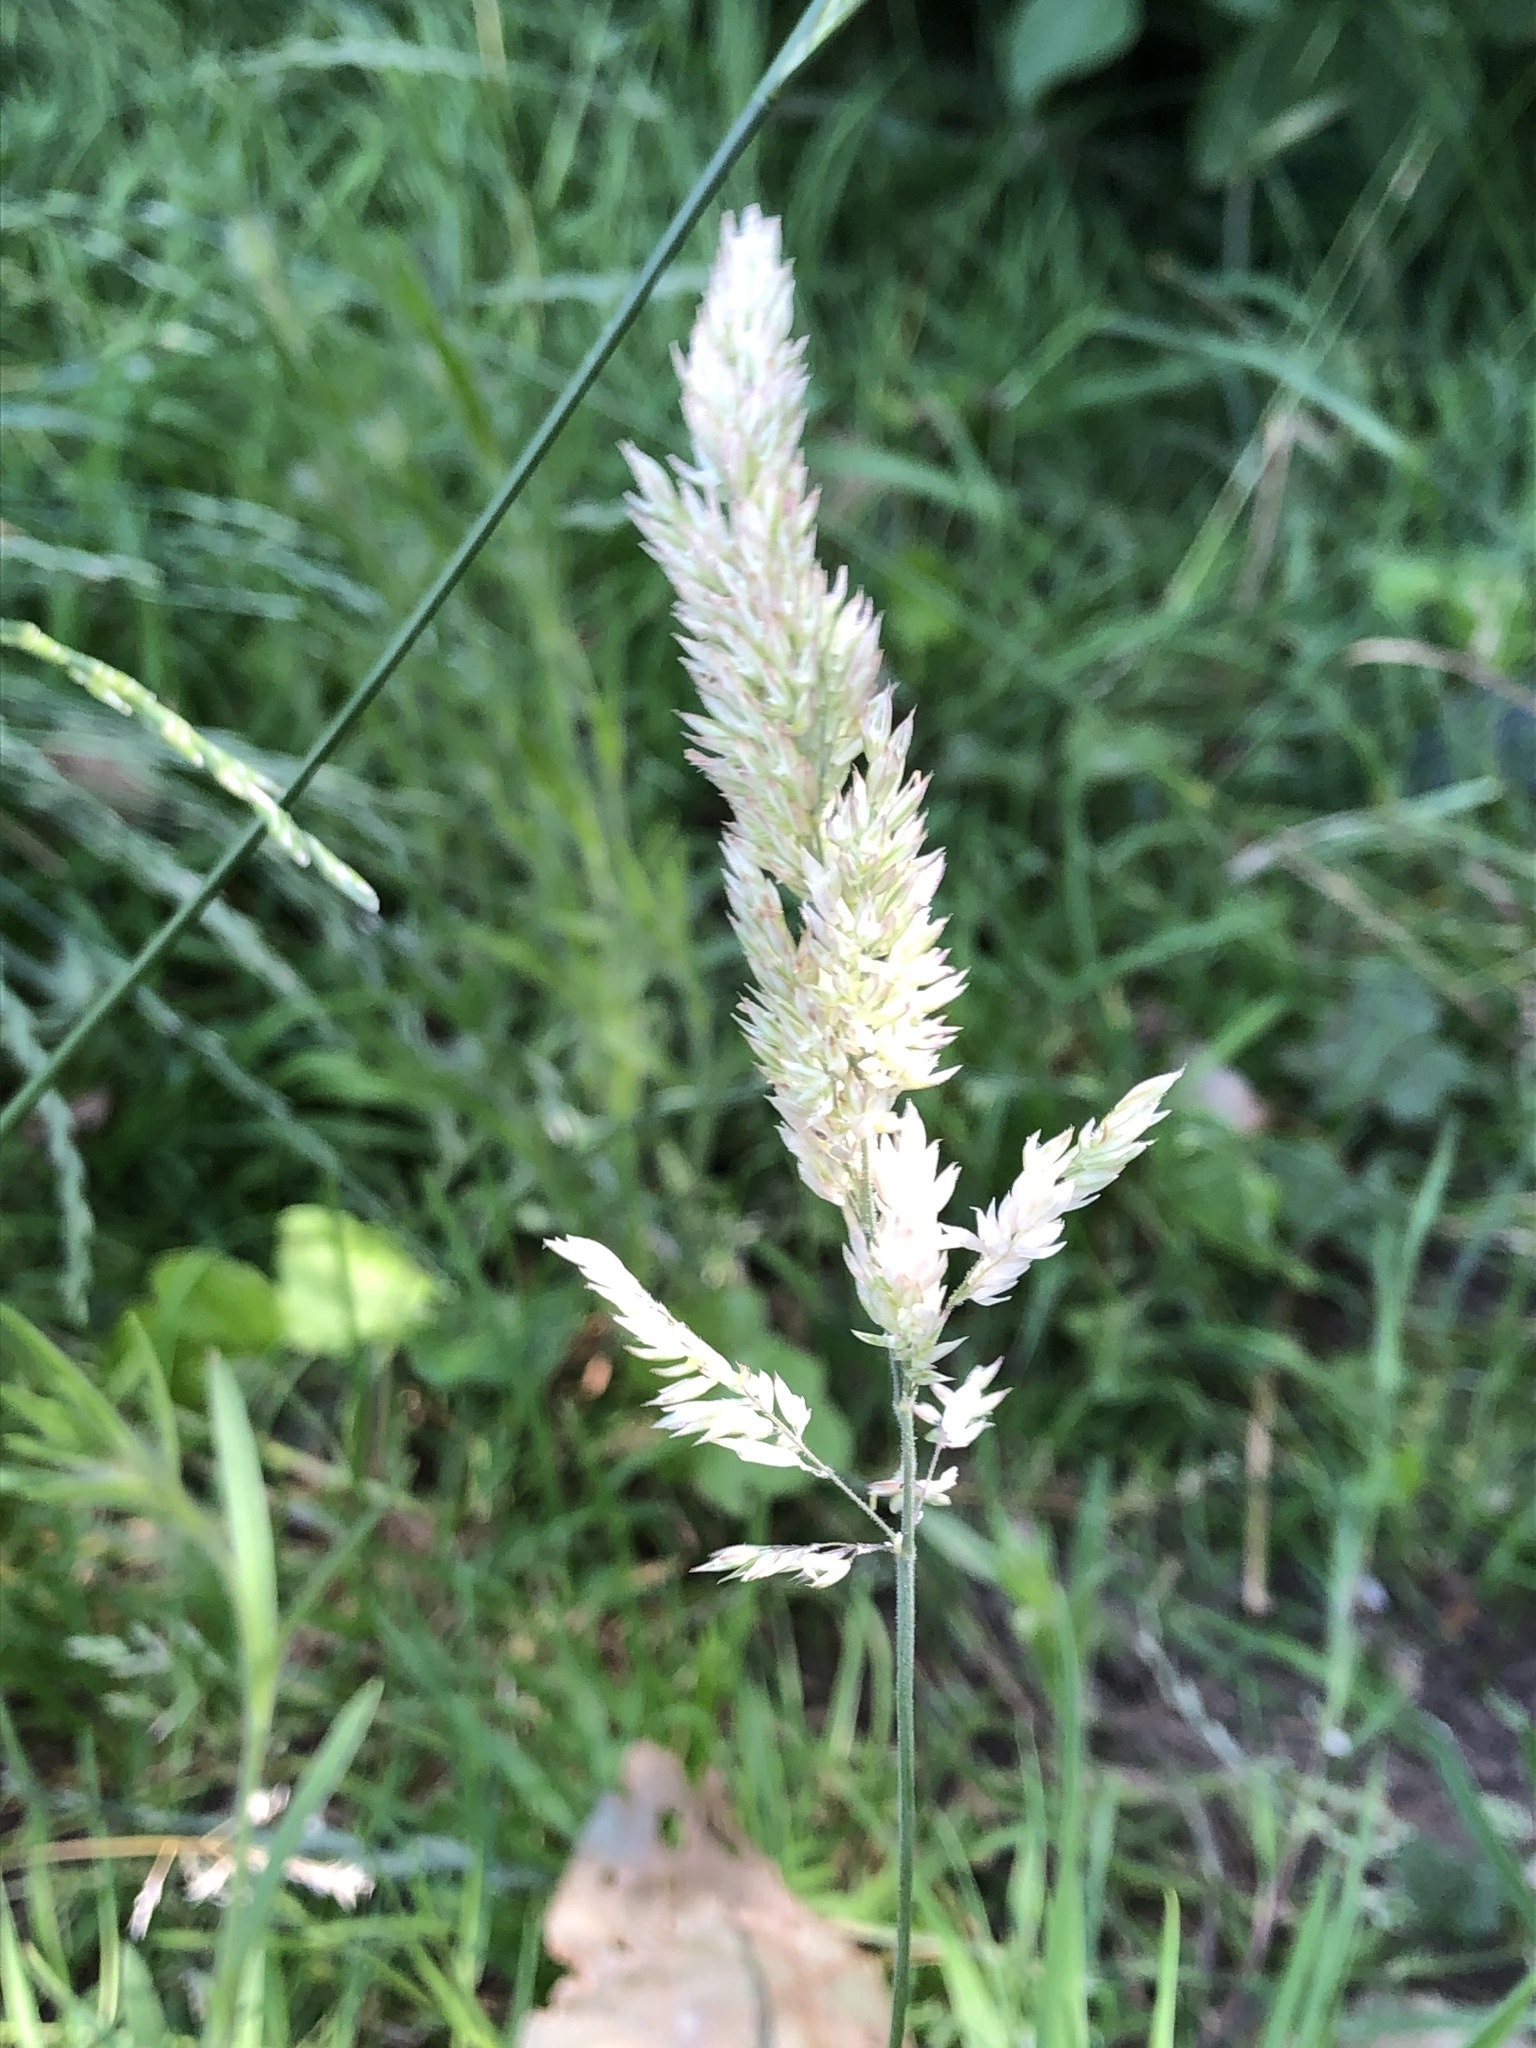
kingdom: Plantae
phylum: Tracheophyta
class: Liliopsida
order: Poales
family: Poaceae
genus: Holcus
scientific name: Holcus lanatus
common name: Yorkshire-fog
